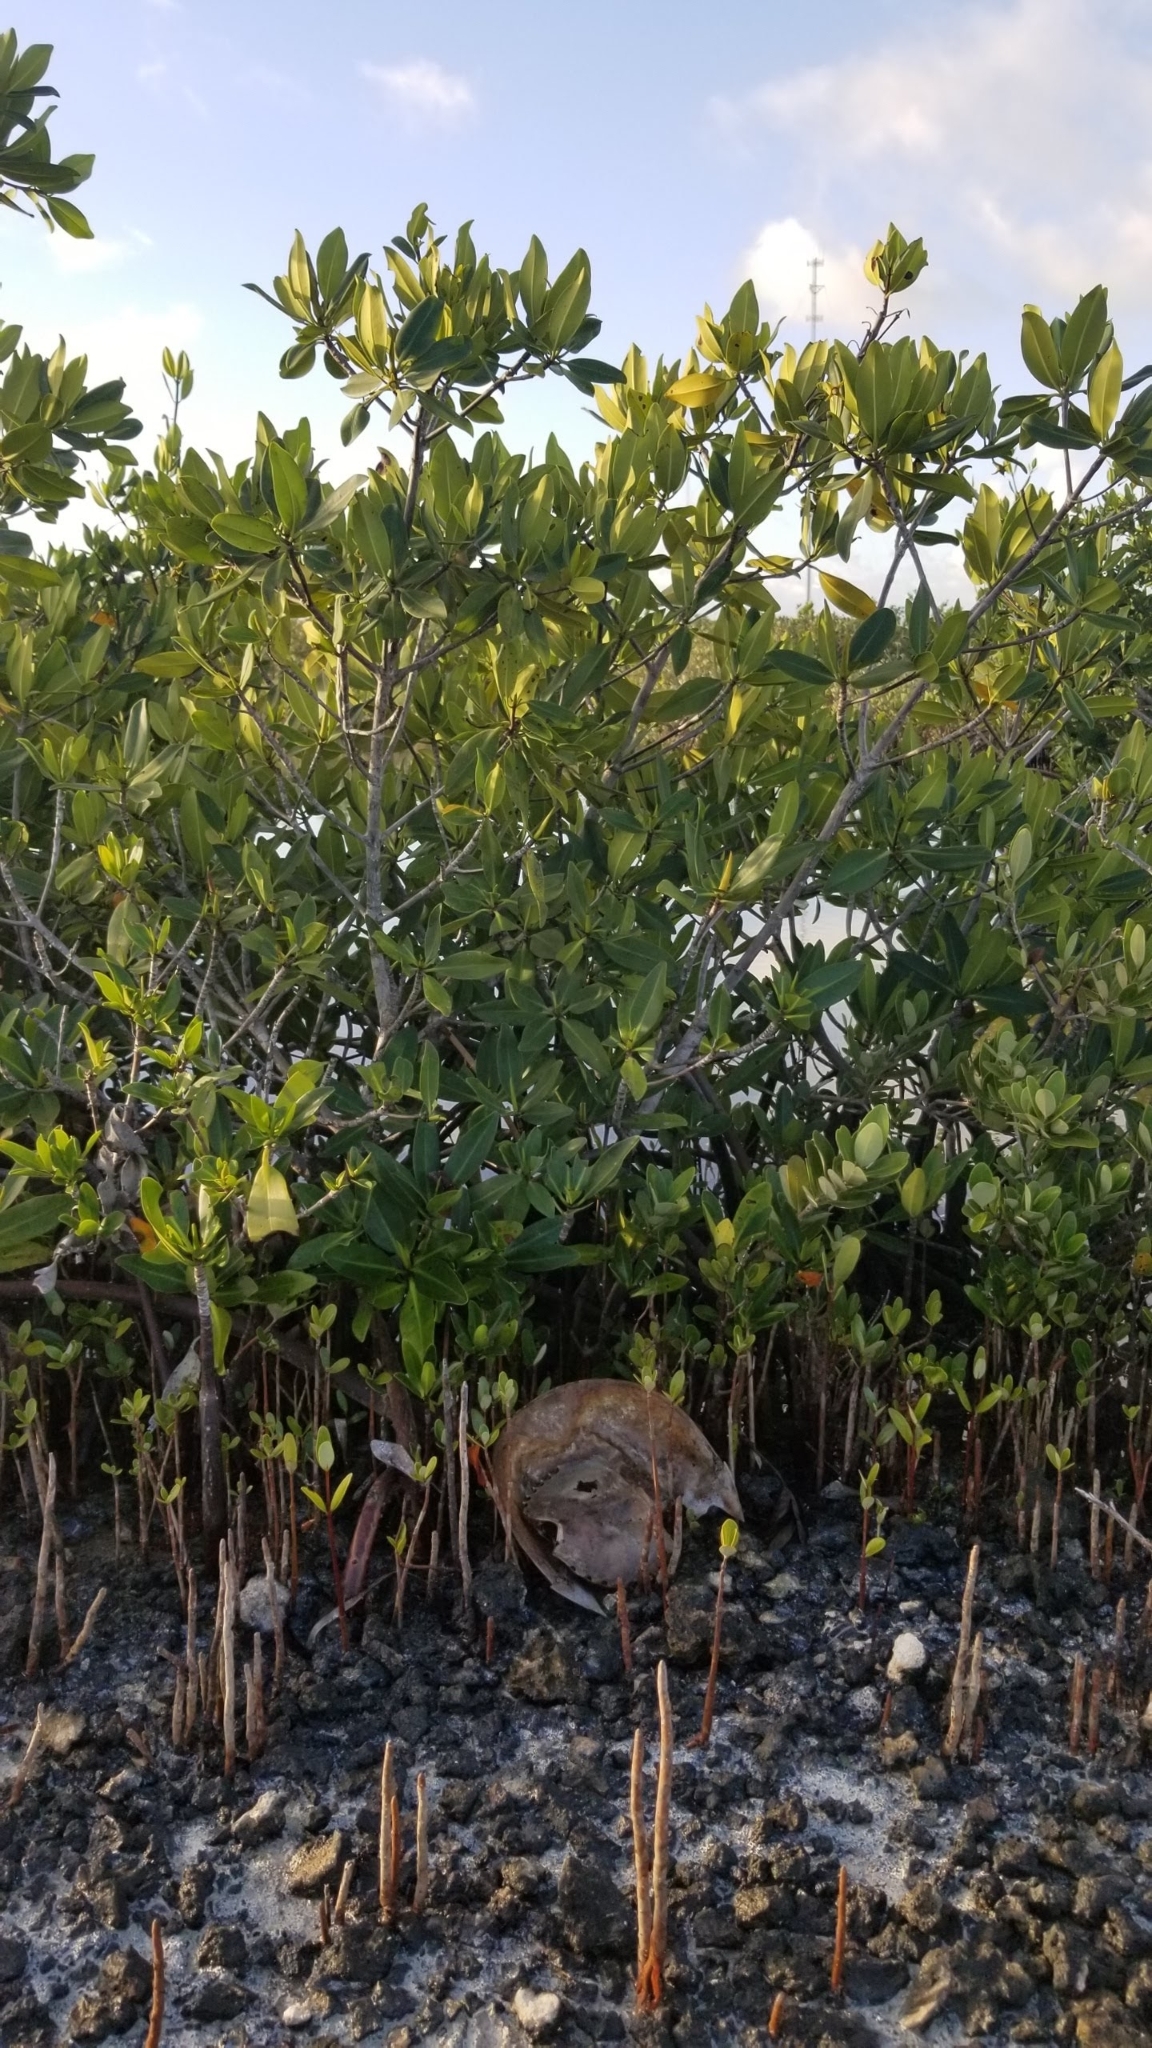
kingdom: Plantae
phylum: Tracheophyta
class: Magnoliopsida
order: Malpighiales
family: Rhizophoraceae
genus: Rhizophora
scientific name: Rhizophora mangle
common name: Red mangrove
